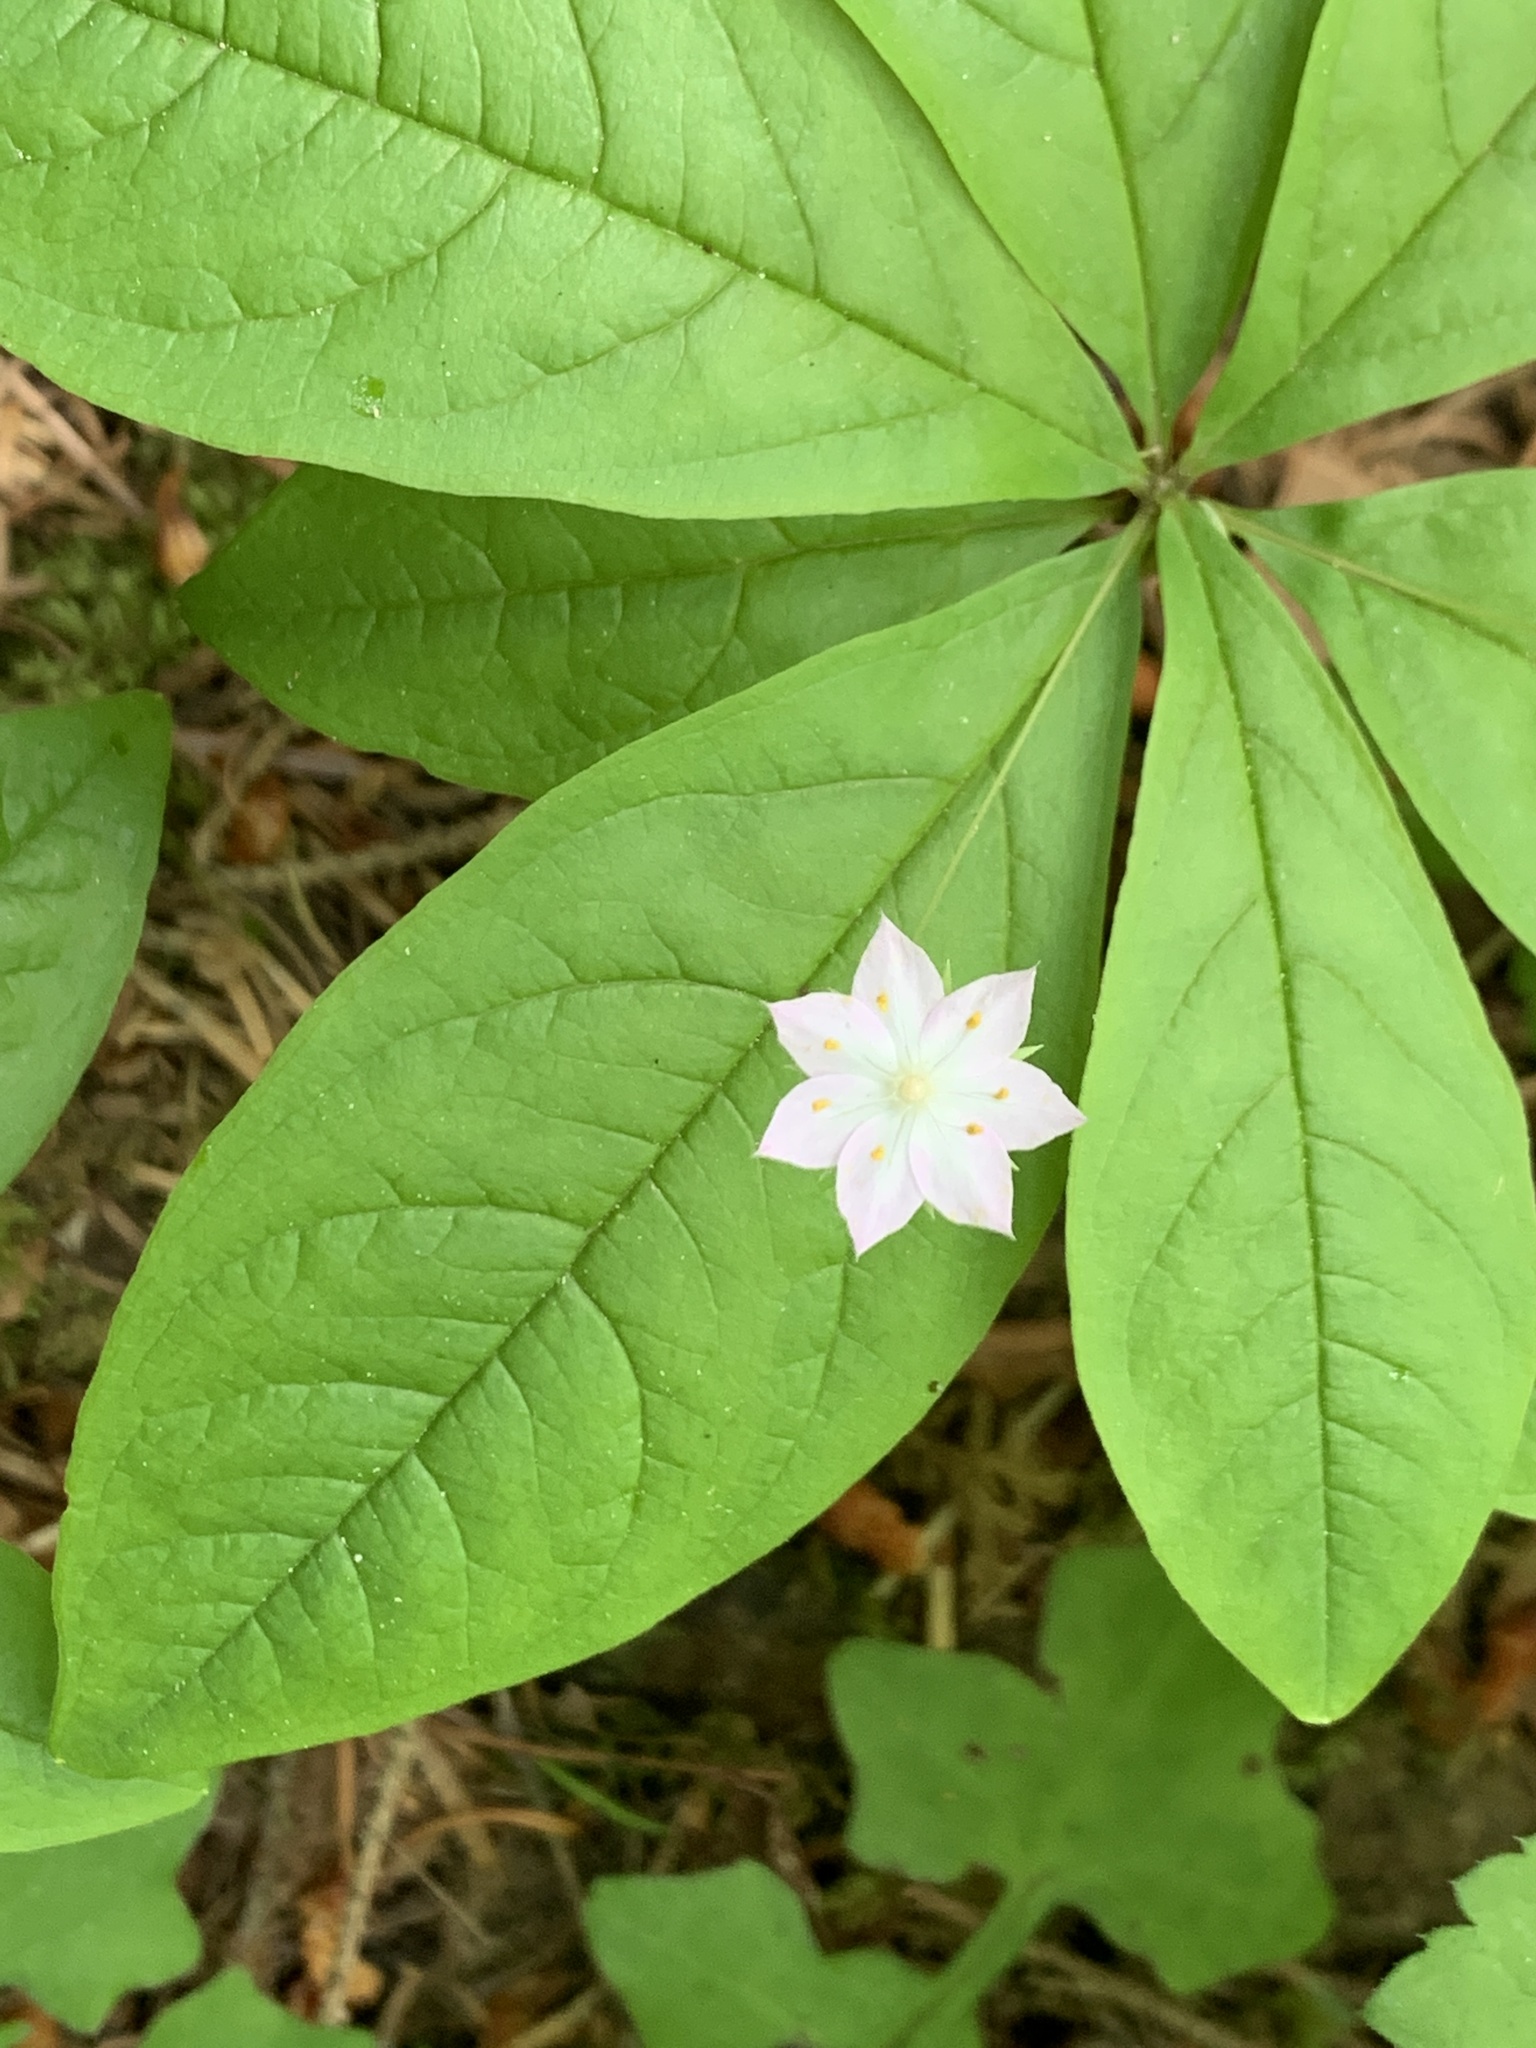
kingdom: Plantae
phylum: Tracheophyta
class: Magnoliopsida
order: Ericales
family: Primulaceae
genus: Lysimachia
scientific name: Lysimachia latifolia
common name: Pacific starflower
